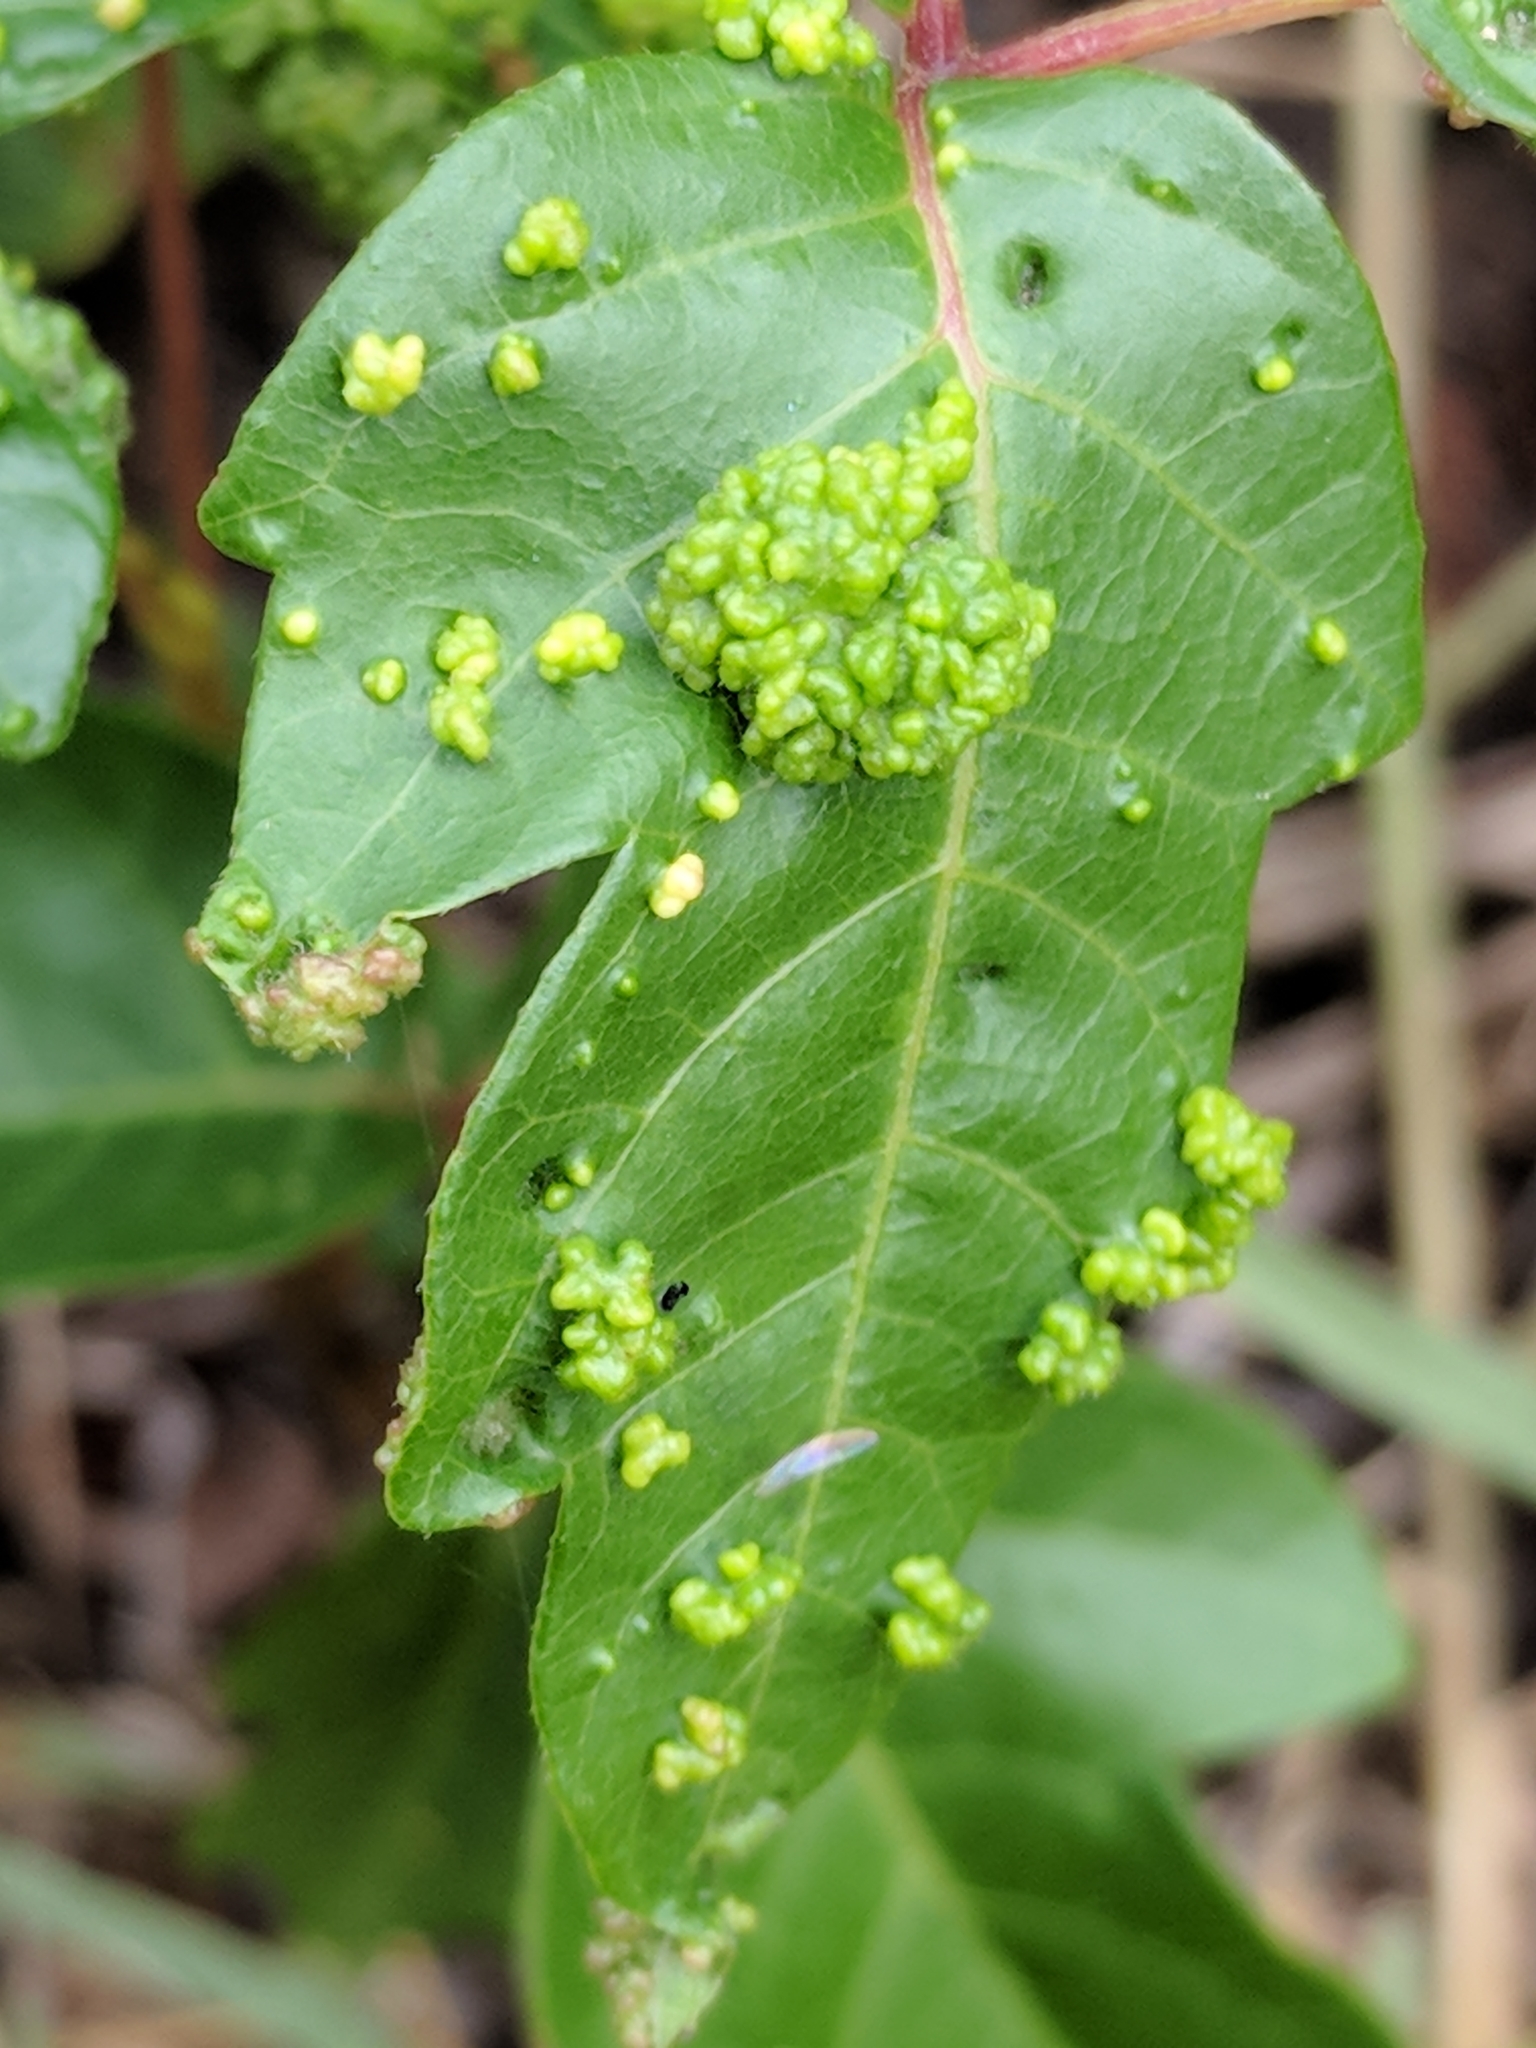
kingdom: Animalia
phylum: Arthropoda
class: Arachnida
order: Trombidiformes
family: Eriophyidae
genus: Aculops
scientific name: Aculops
